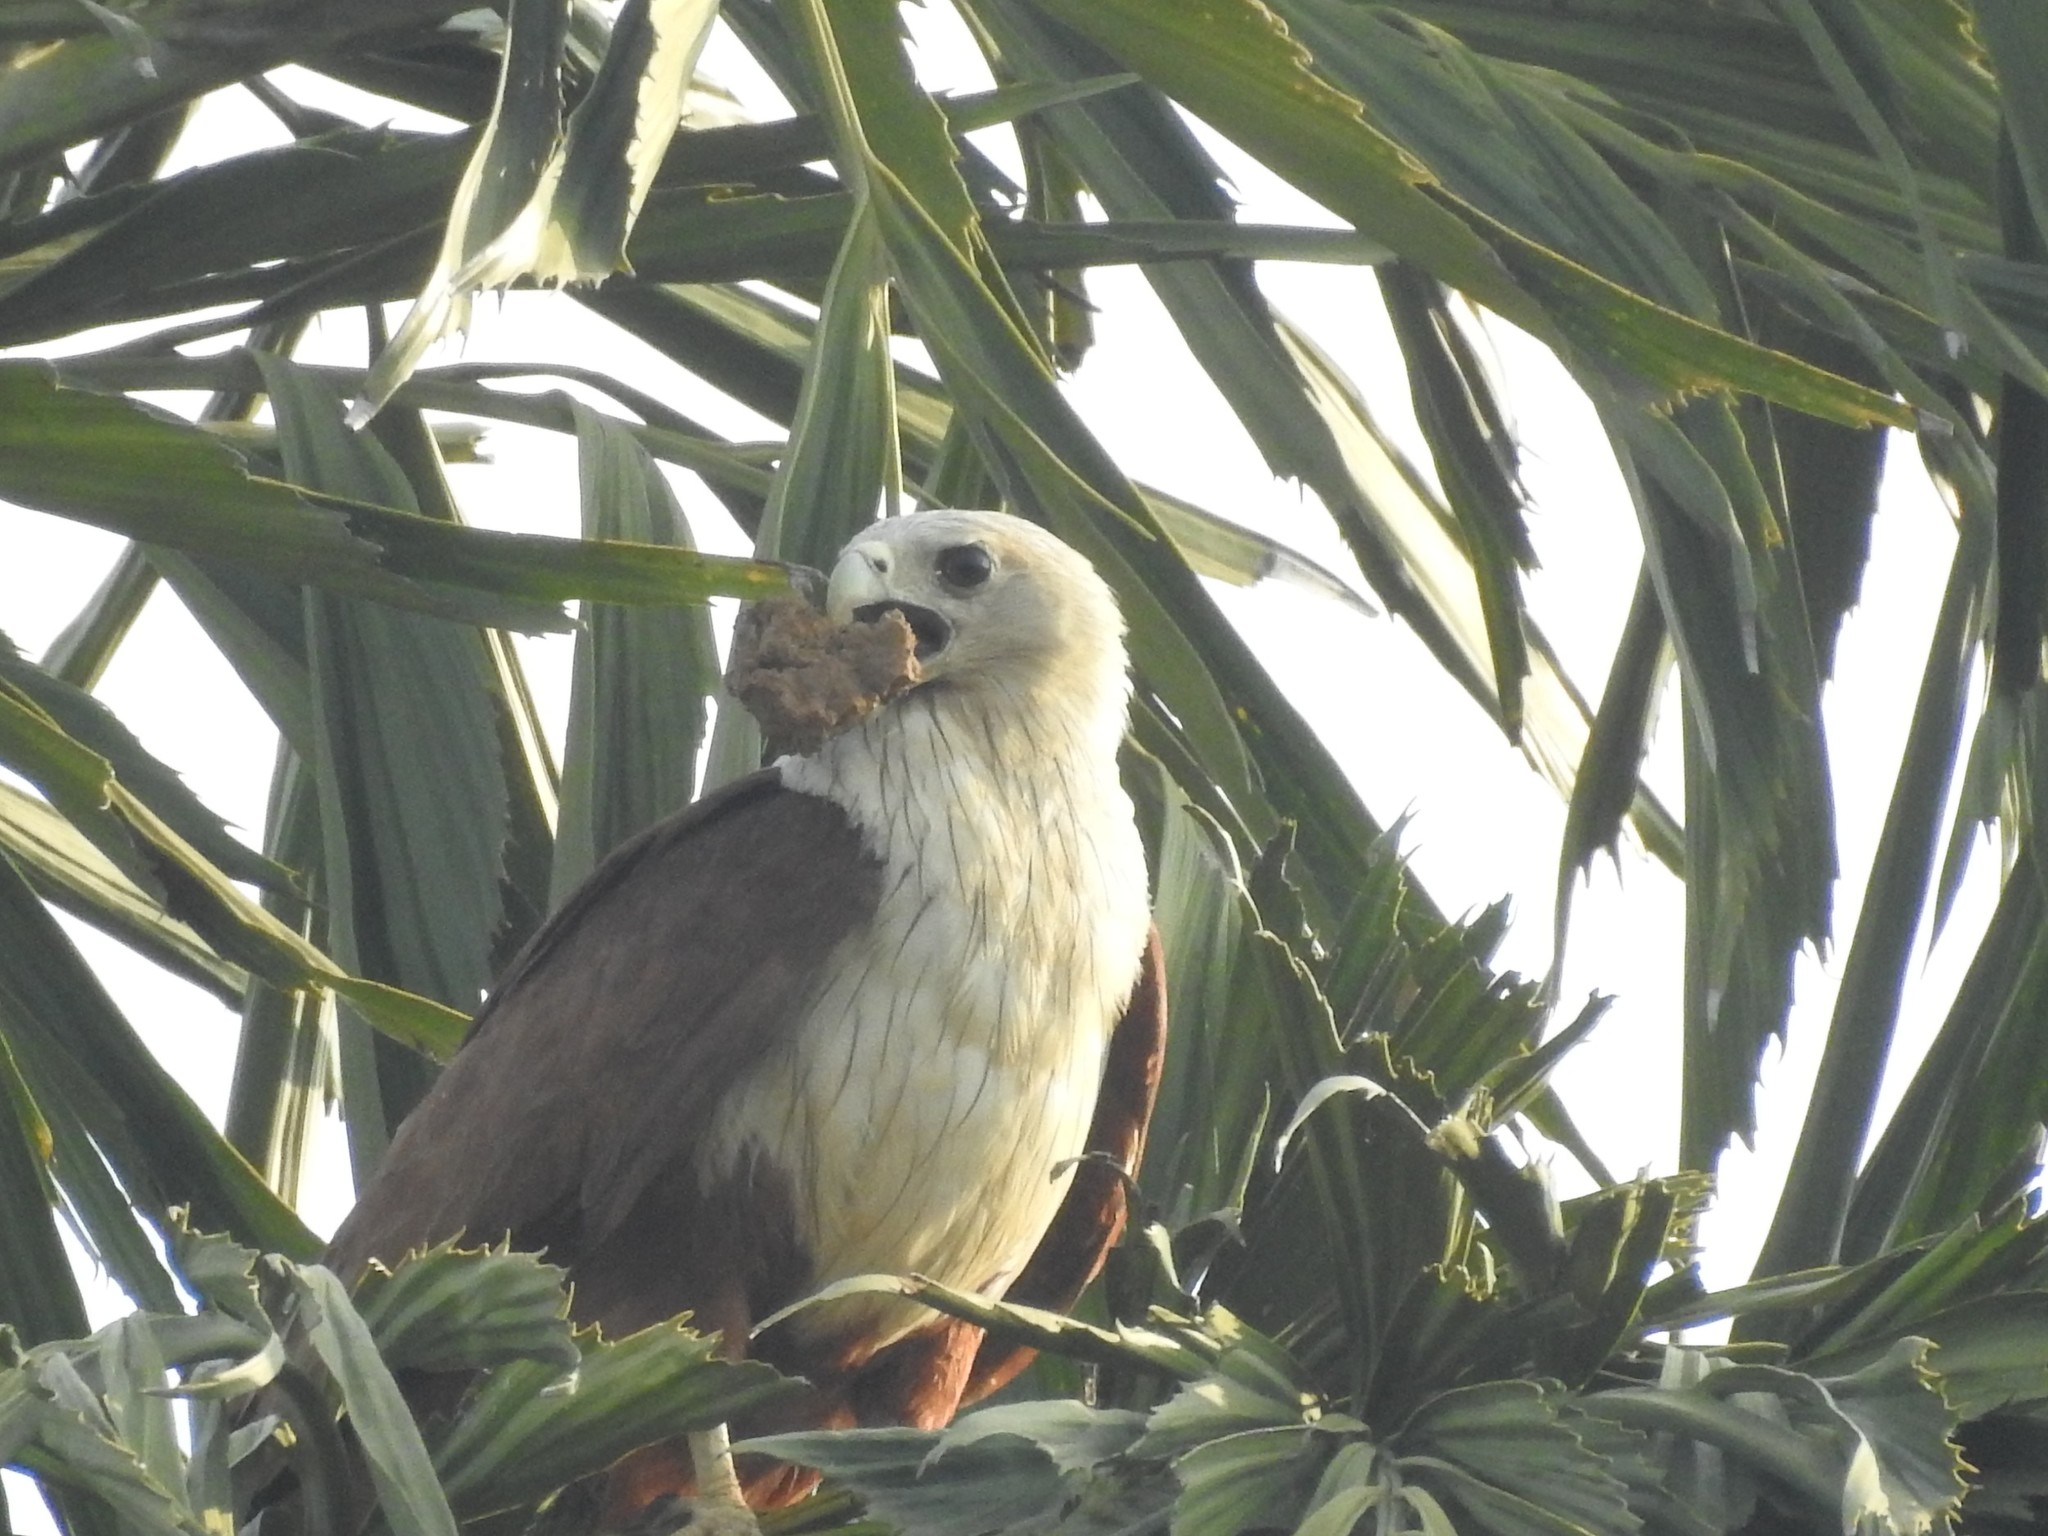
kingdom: Animalia
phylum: Chordata
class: Aves
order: Accipitriformes
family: Accipitridae
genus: Haliastur
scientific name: Haliastur indus
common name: Brahminy kite
